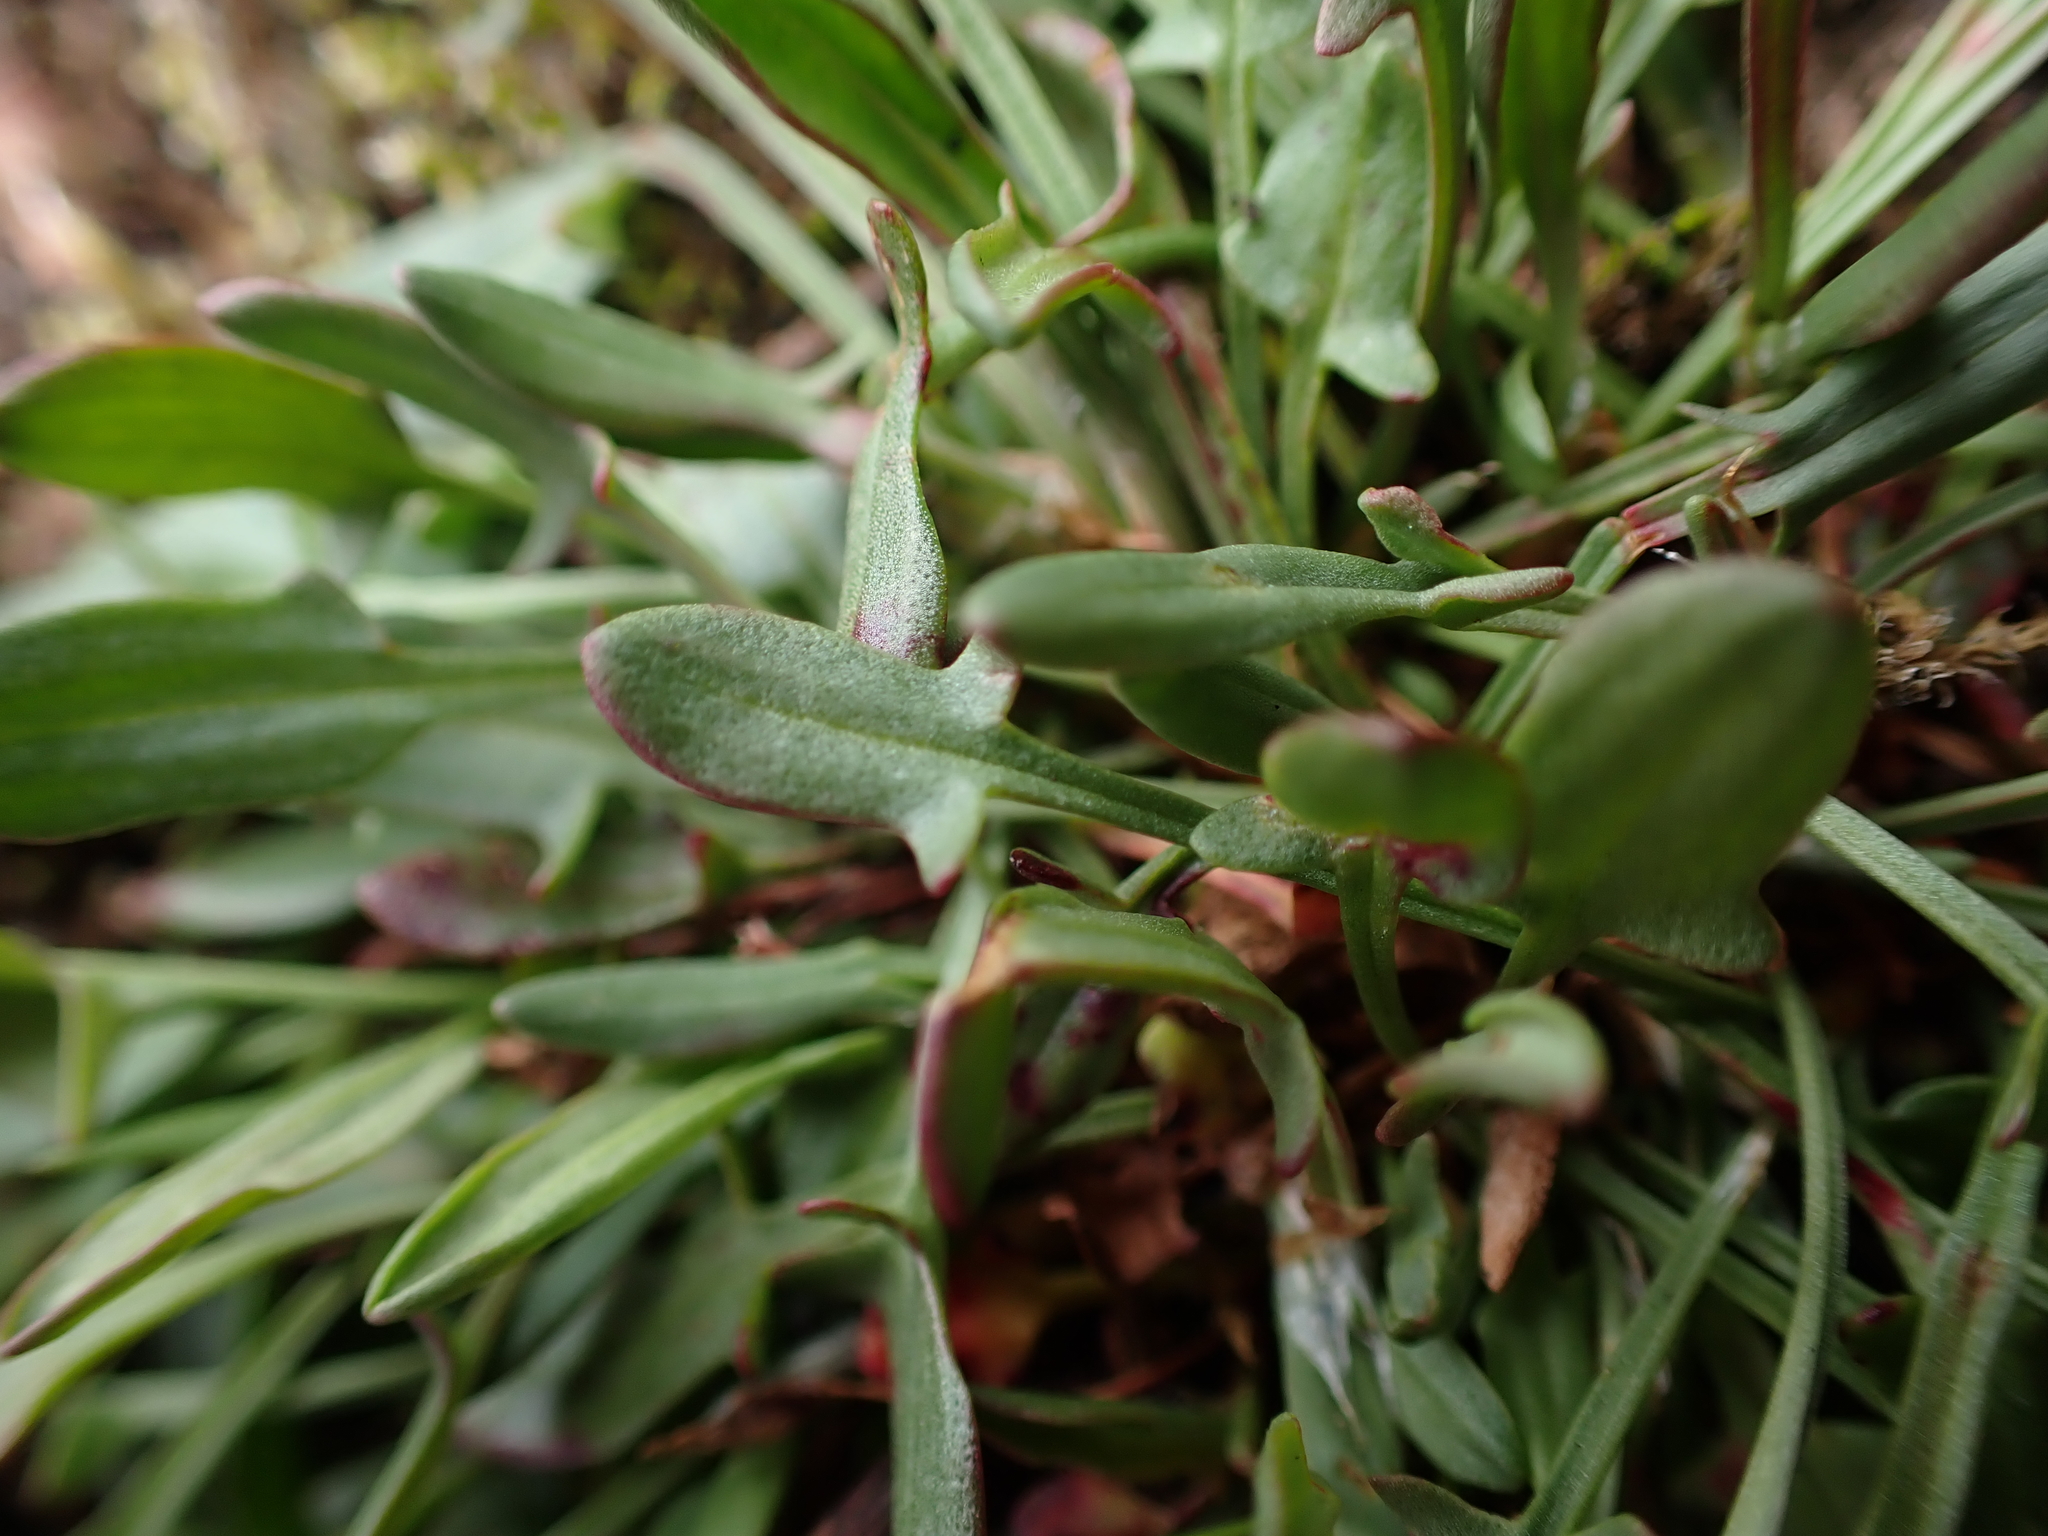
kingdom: Plantae
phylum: Tracheophyta
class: Magnoliopsida
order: Caryophyllales
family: Polygonaceae
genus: Rumex
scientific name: Rumex acetosella
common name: Common sheep sorrel
